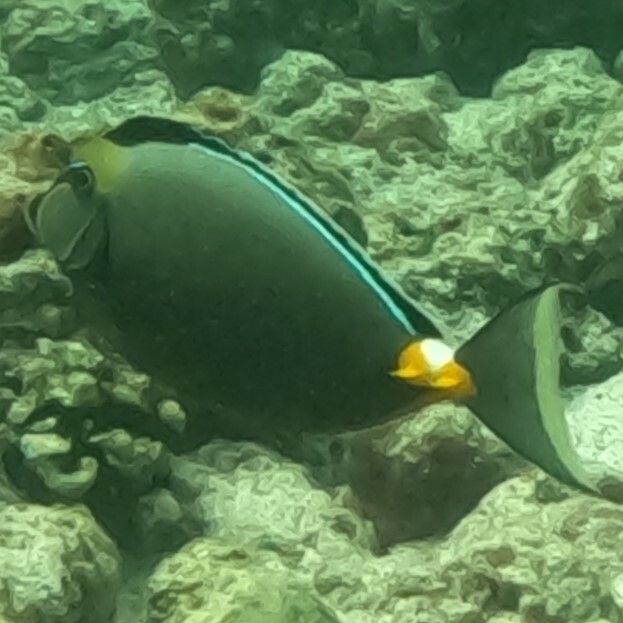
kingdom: Animalia
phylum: Chordata
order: Perciformes
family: Acanthuridae
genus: Naso
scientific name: Naso lituratus
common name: Orangespine unicornfish
